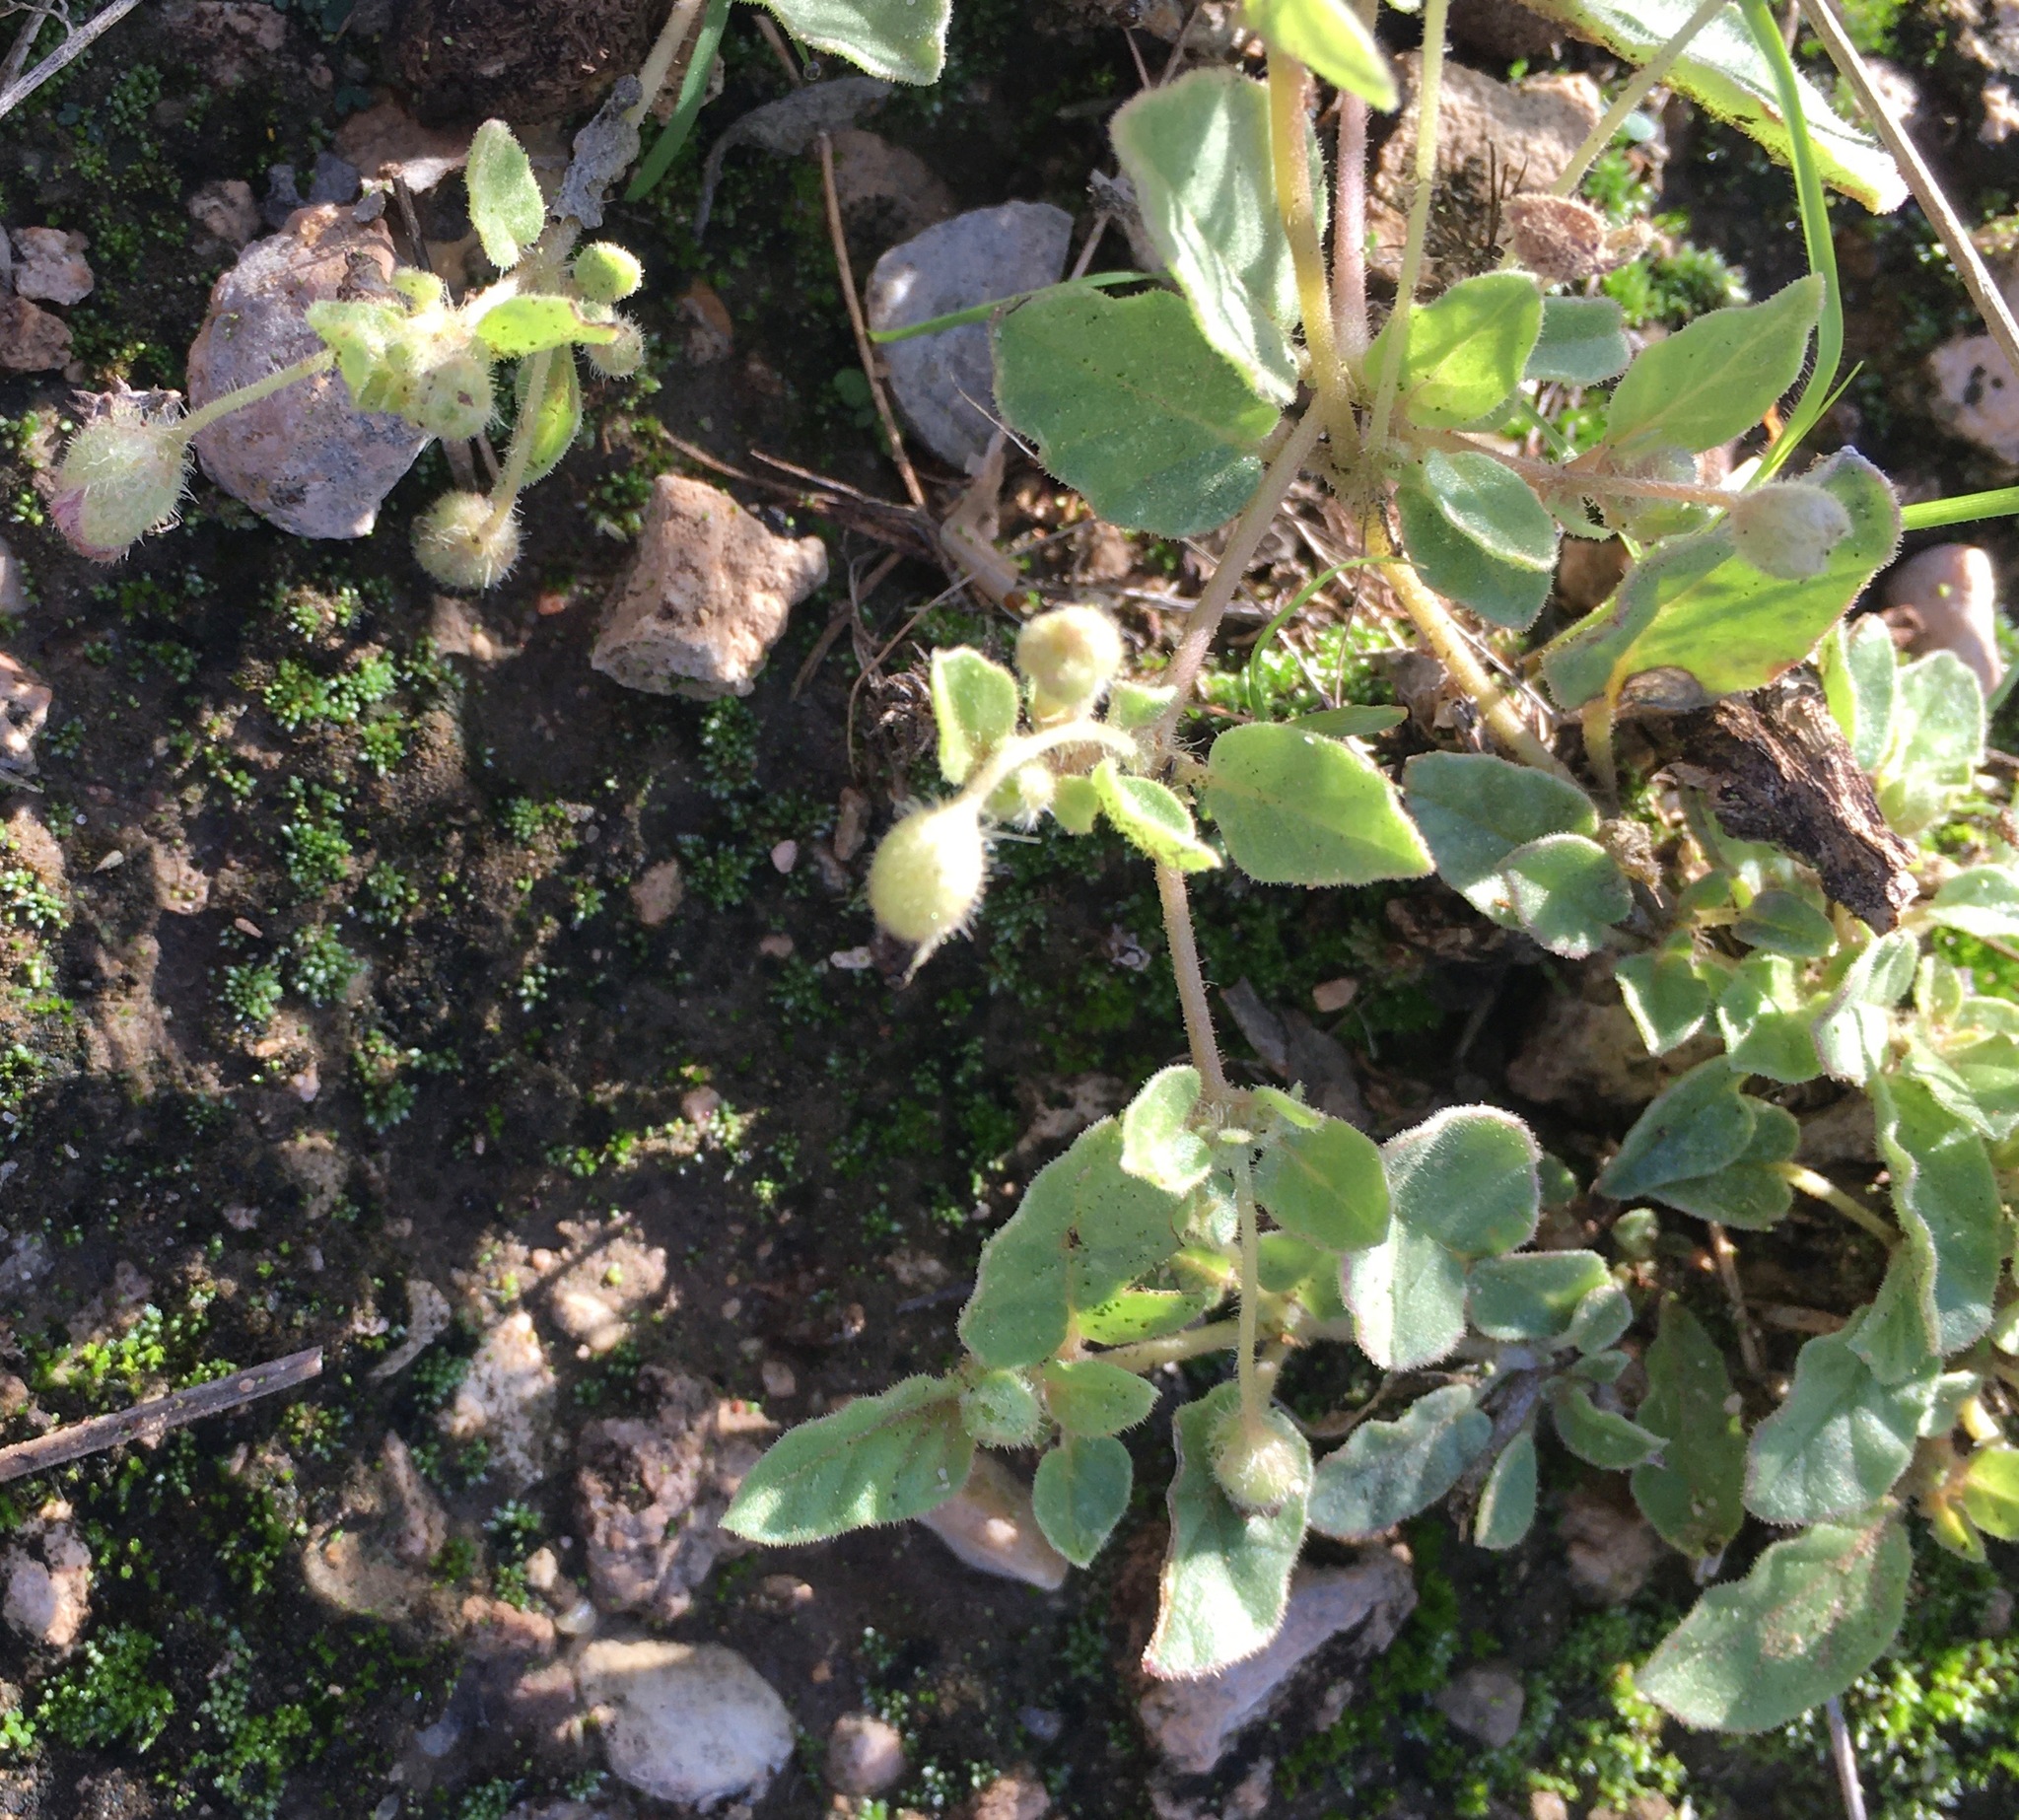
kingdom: Plantae
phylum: Tracheophyta
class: Magnoliopsida
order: Caryophyllales
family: Nyctaginaceae
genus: Allionia
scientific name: Allionia incarnata
